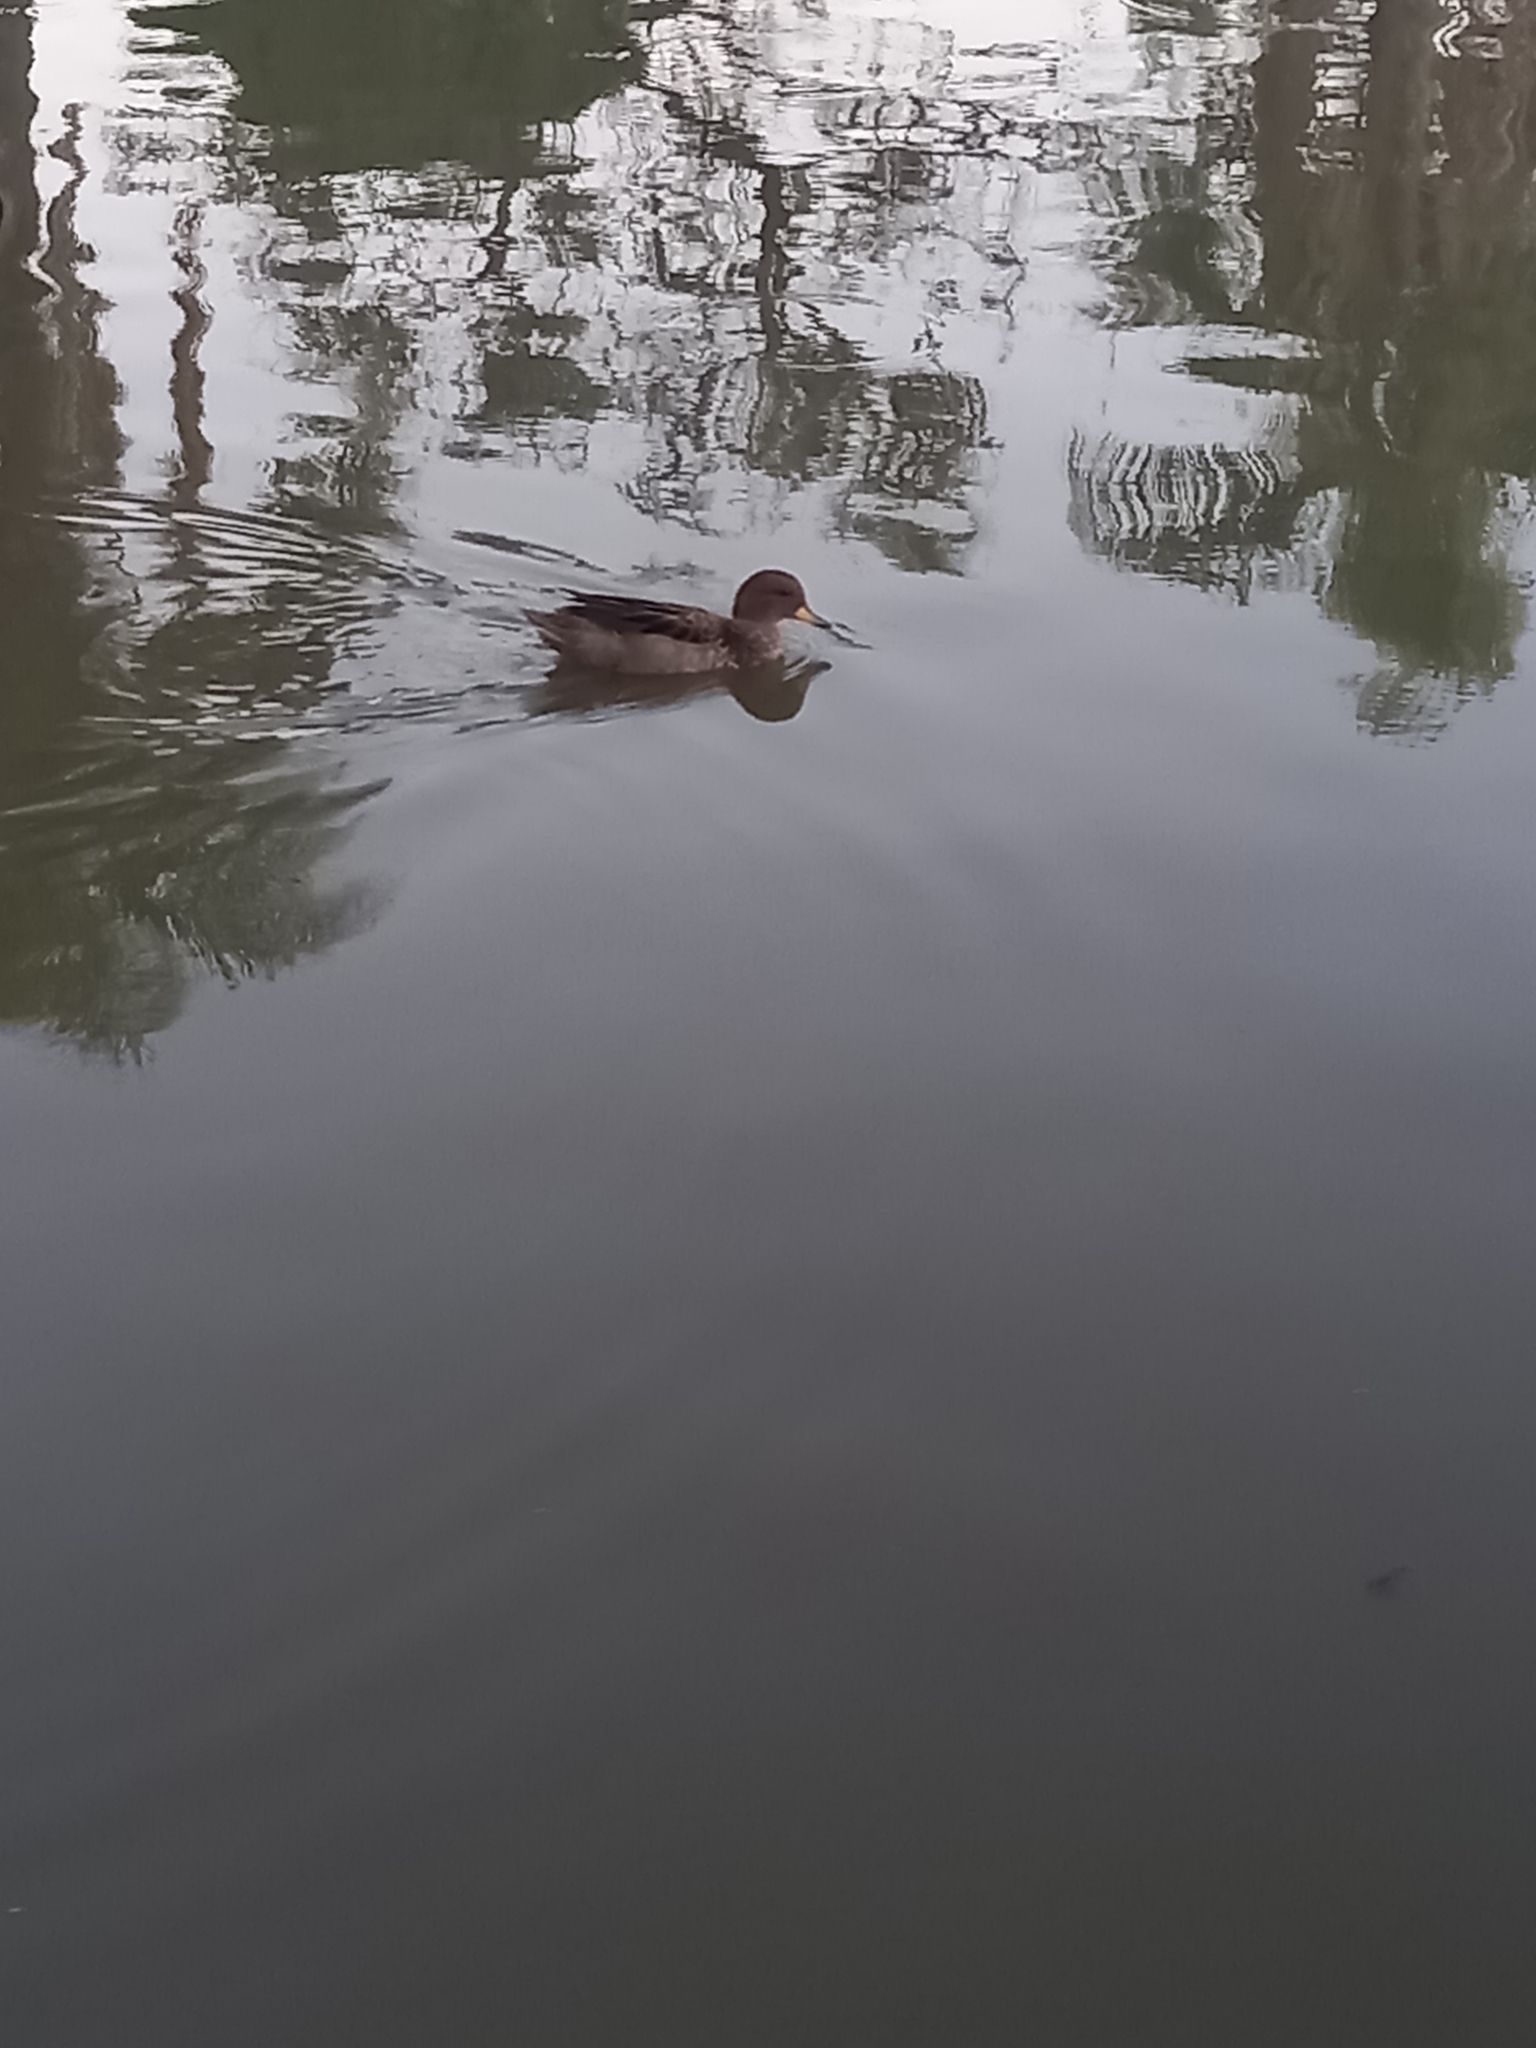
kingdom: Animalia
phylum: Chordata
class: Aves
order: Anseriformes
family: Anatidae
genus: Anas
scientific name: Anas flavirostris
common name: Yellow-billed teal
